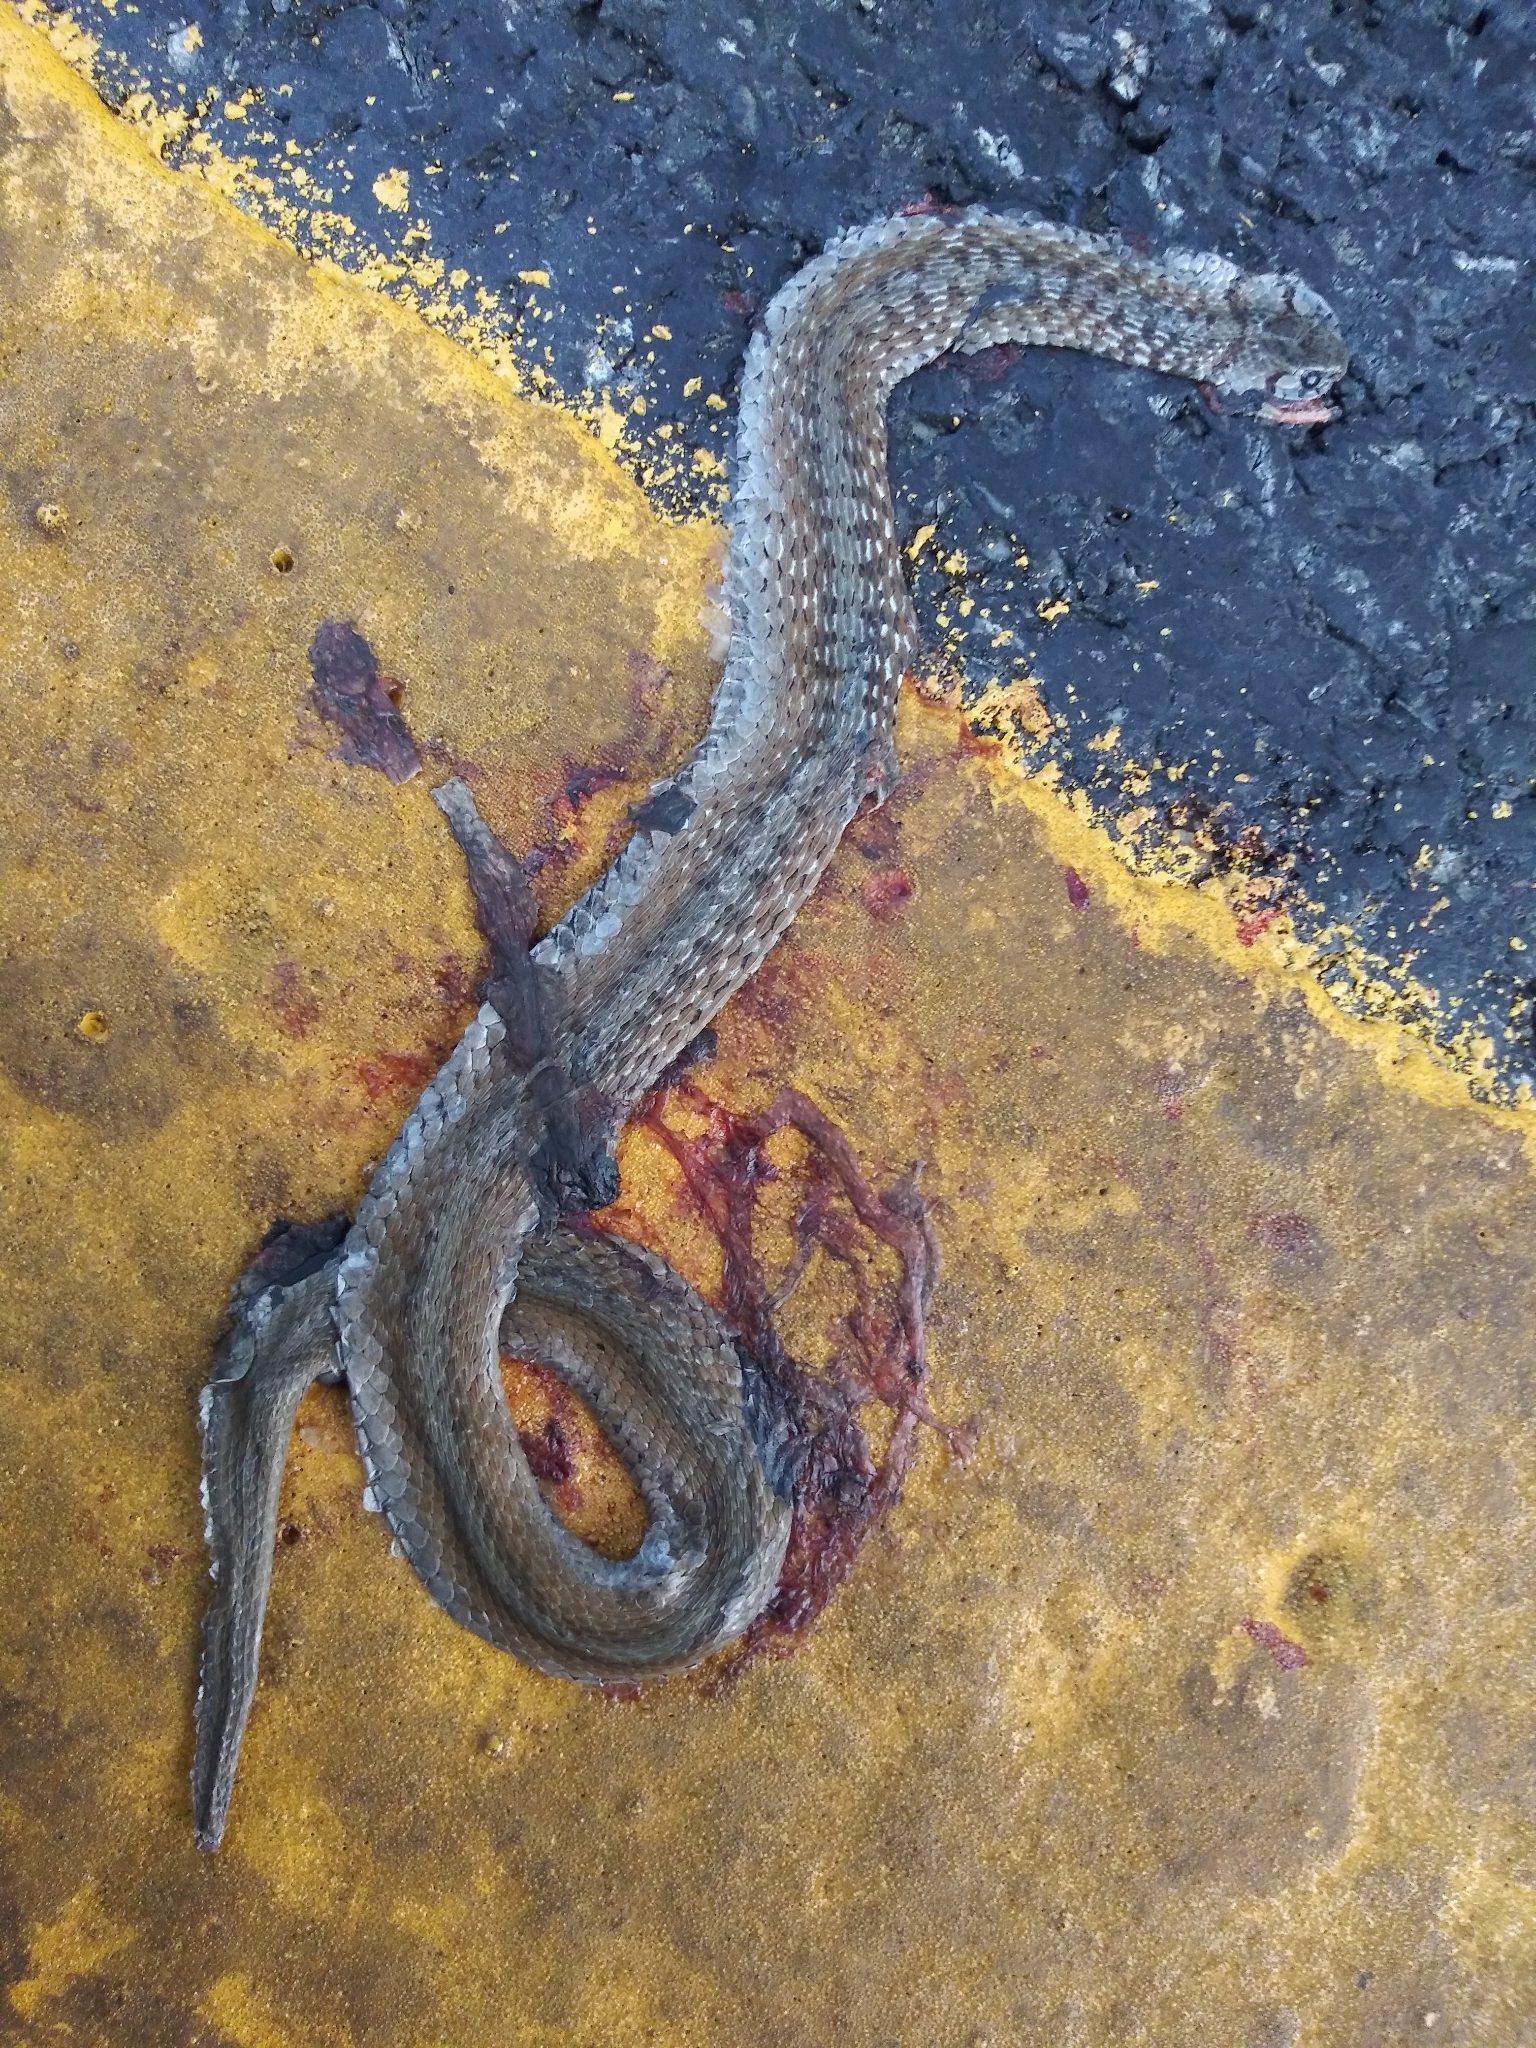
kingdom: Animalia
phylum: Chordata
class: Squamata
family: Colubridae
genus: Storeria
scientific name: Storeria dekayi
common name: (dekay’s) brown snake
